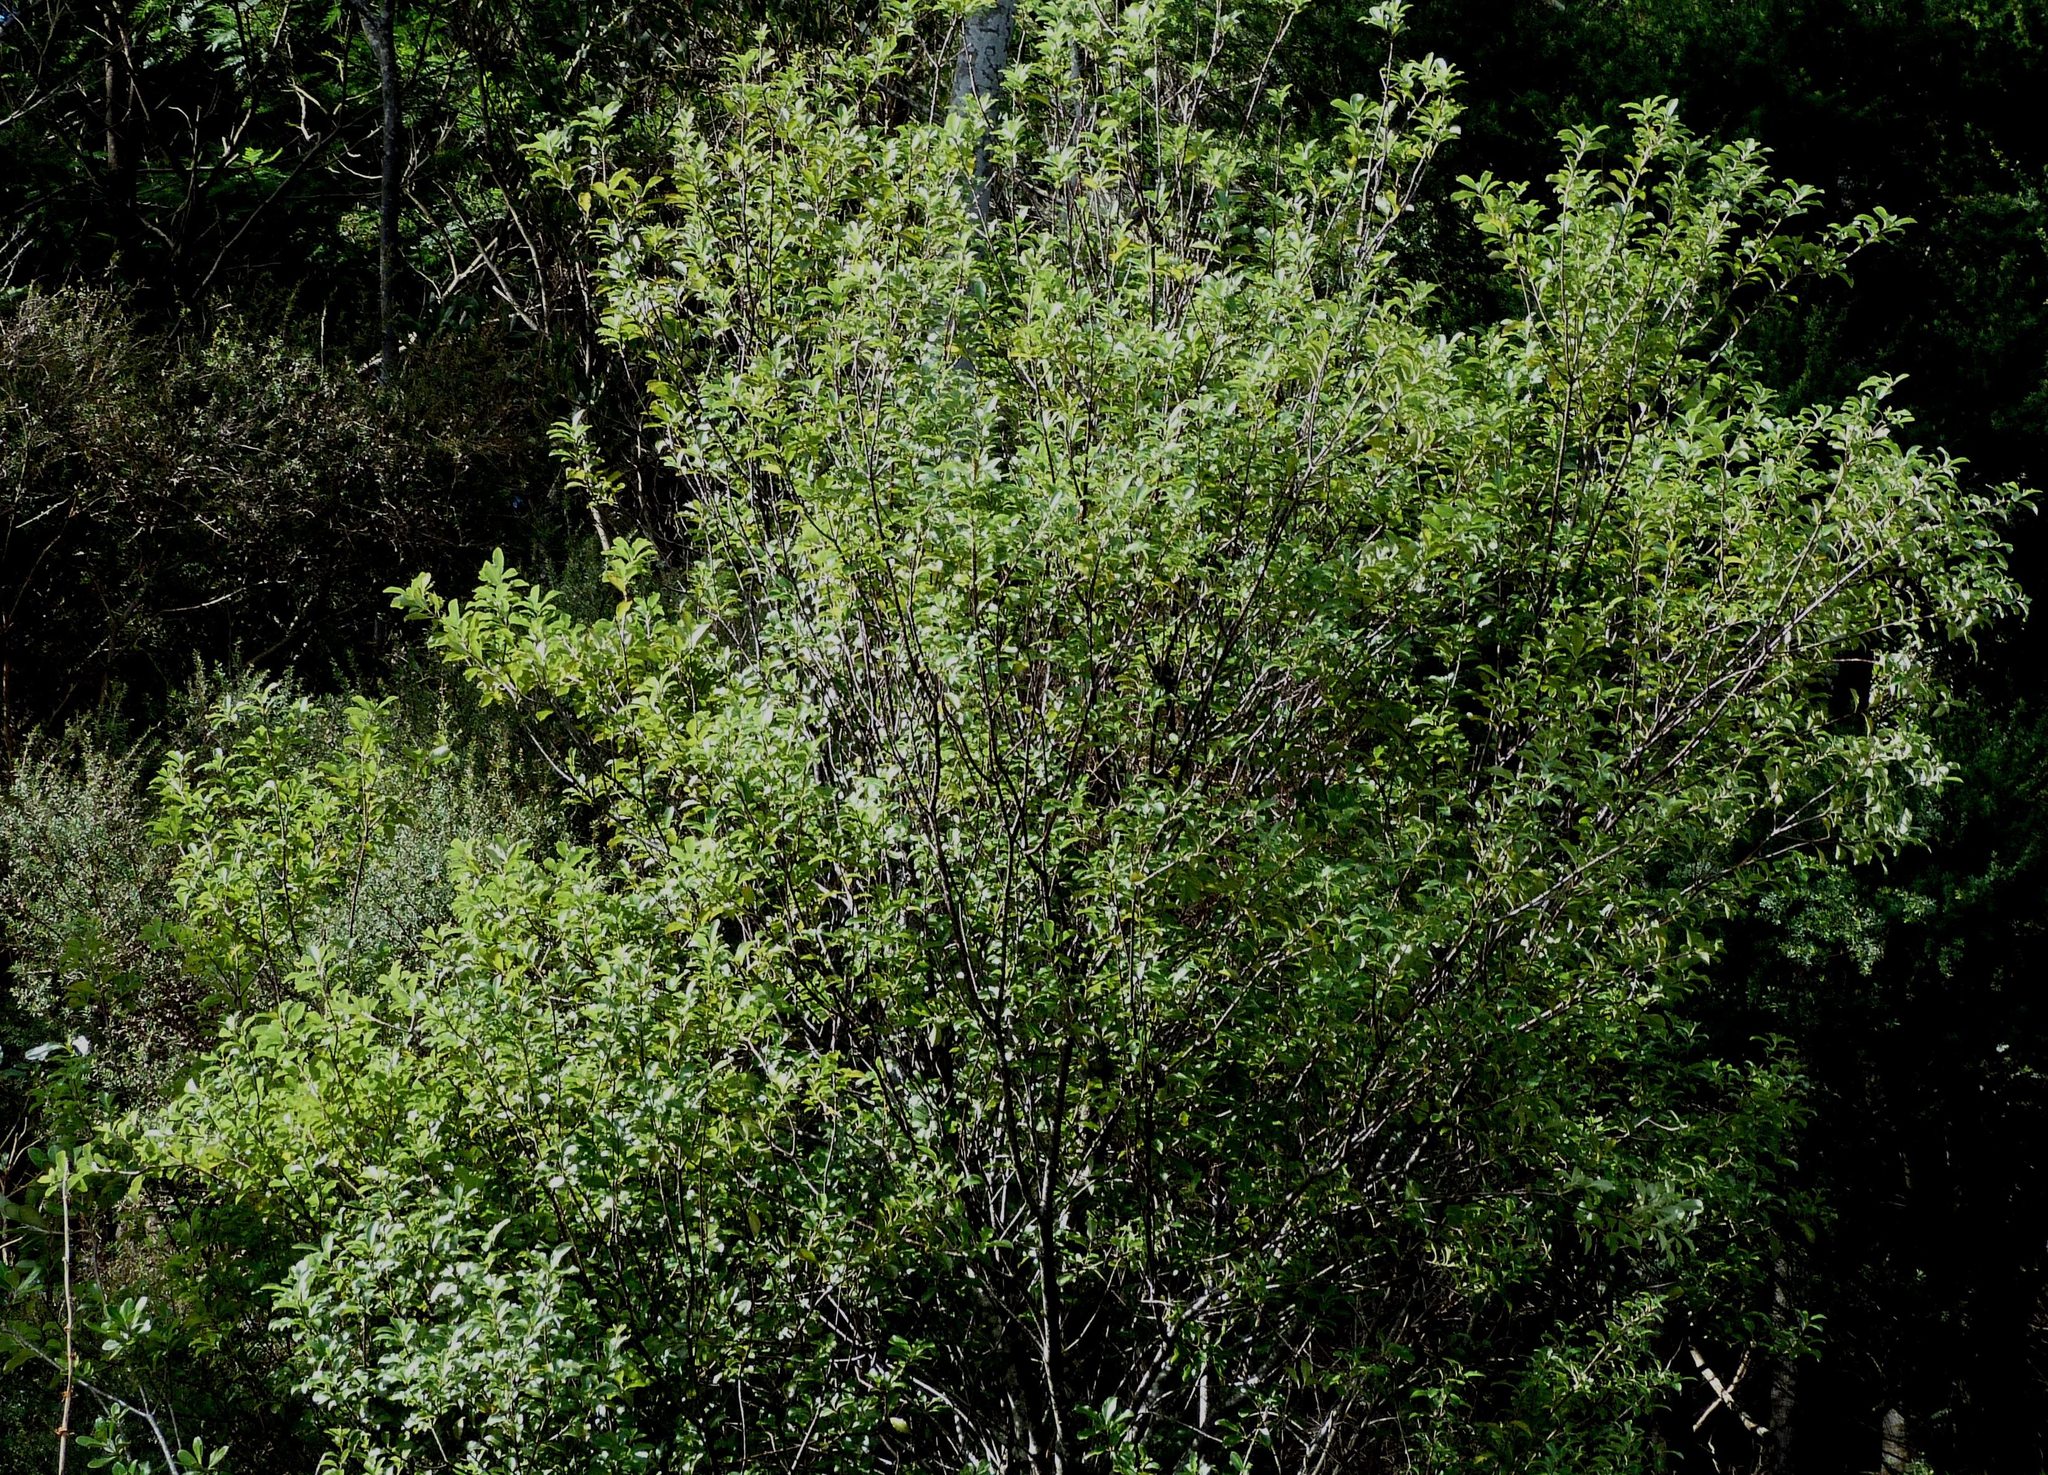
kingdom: Plantae
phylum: Tracheophyta
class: Magnoliopsida
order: Apiales
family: Pittosporaceae
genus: Pittosporum
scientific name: Pittosporum tenuifolium
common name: Kohuhu
